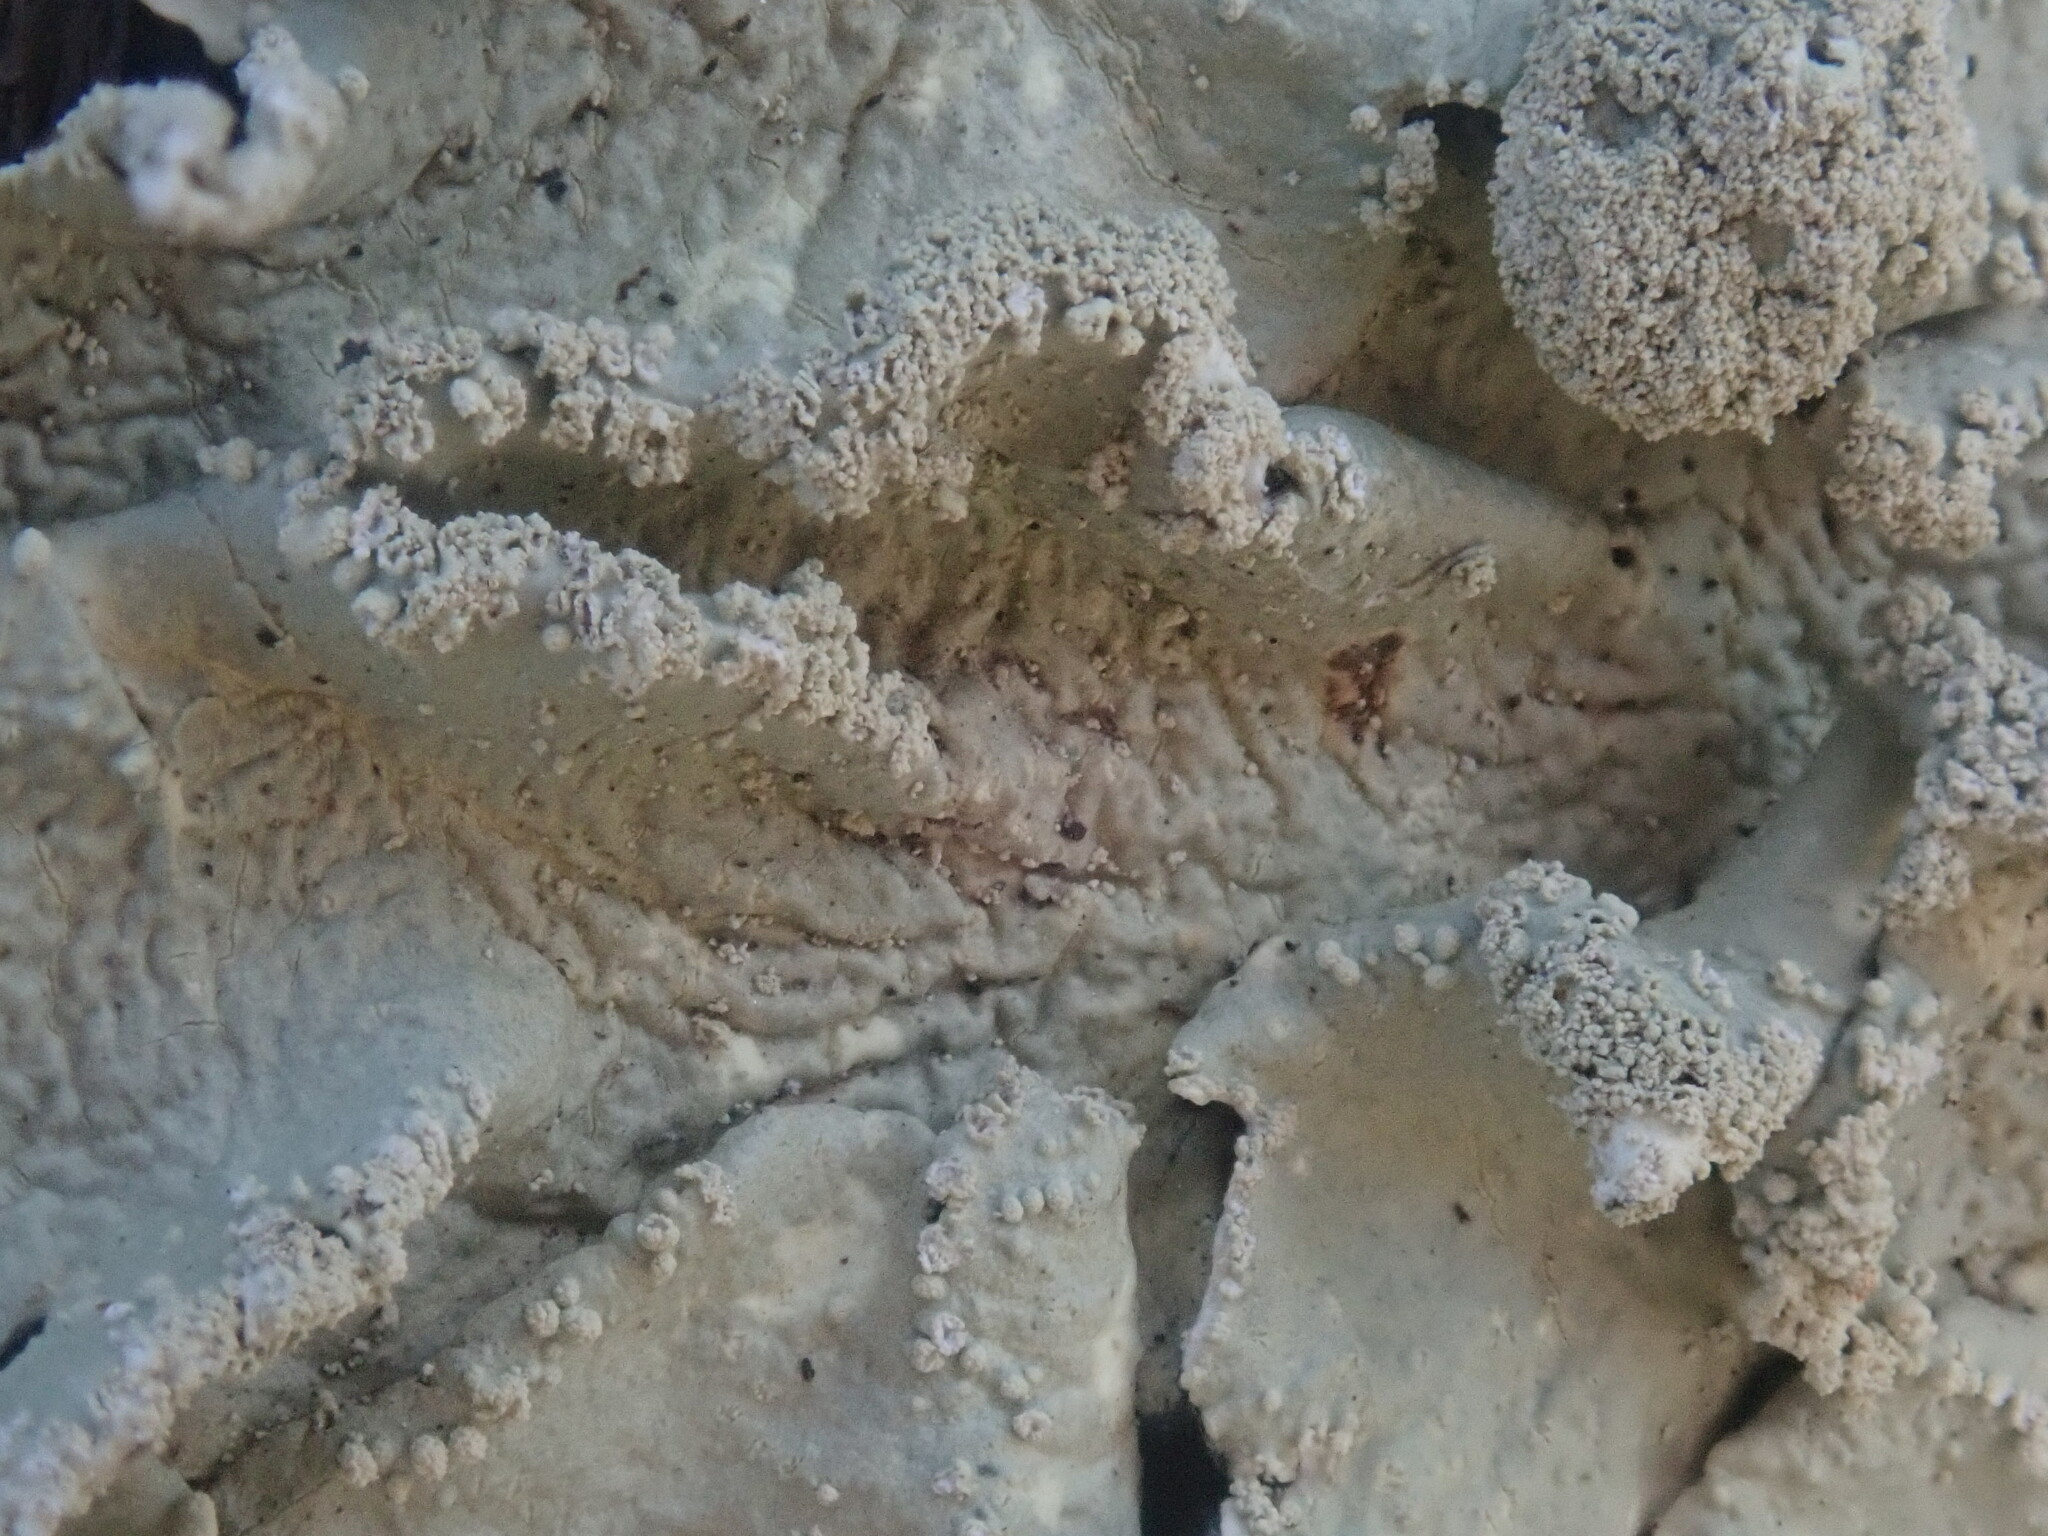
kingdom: Fungi
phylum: Ascomycota
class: Lecanoromycetes
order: Lecanorales
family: Parmeliaceae
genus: Flavoparmelia
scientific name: Flavoparmelia caperata
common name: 40-mile per hour lichen
